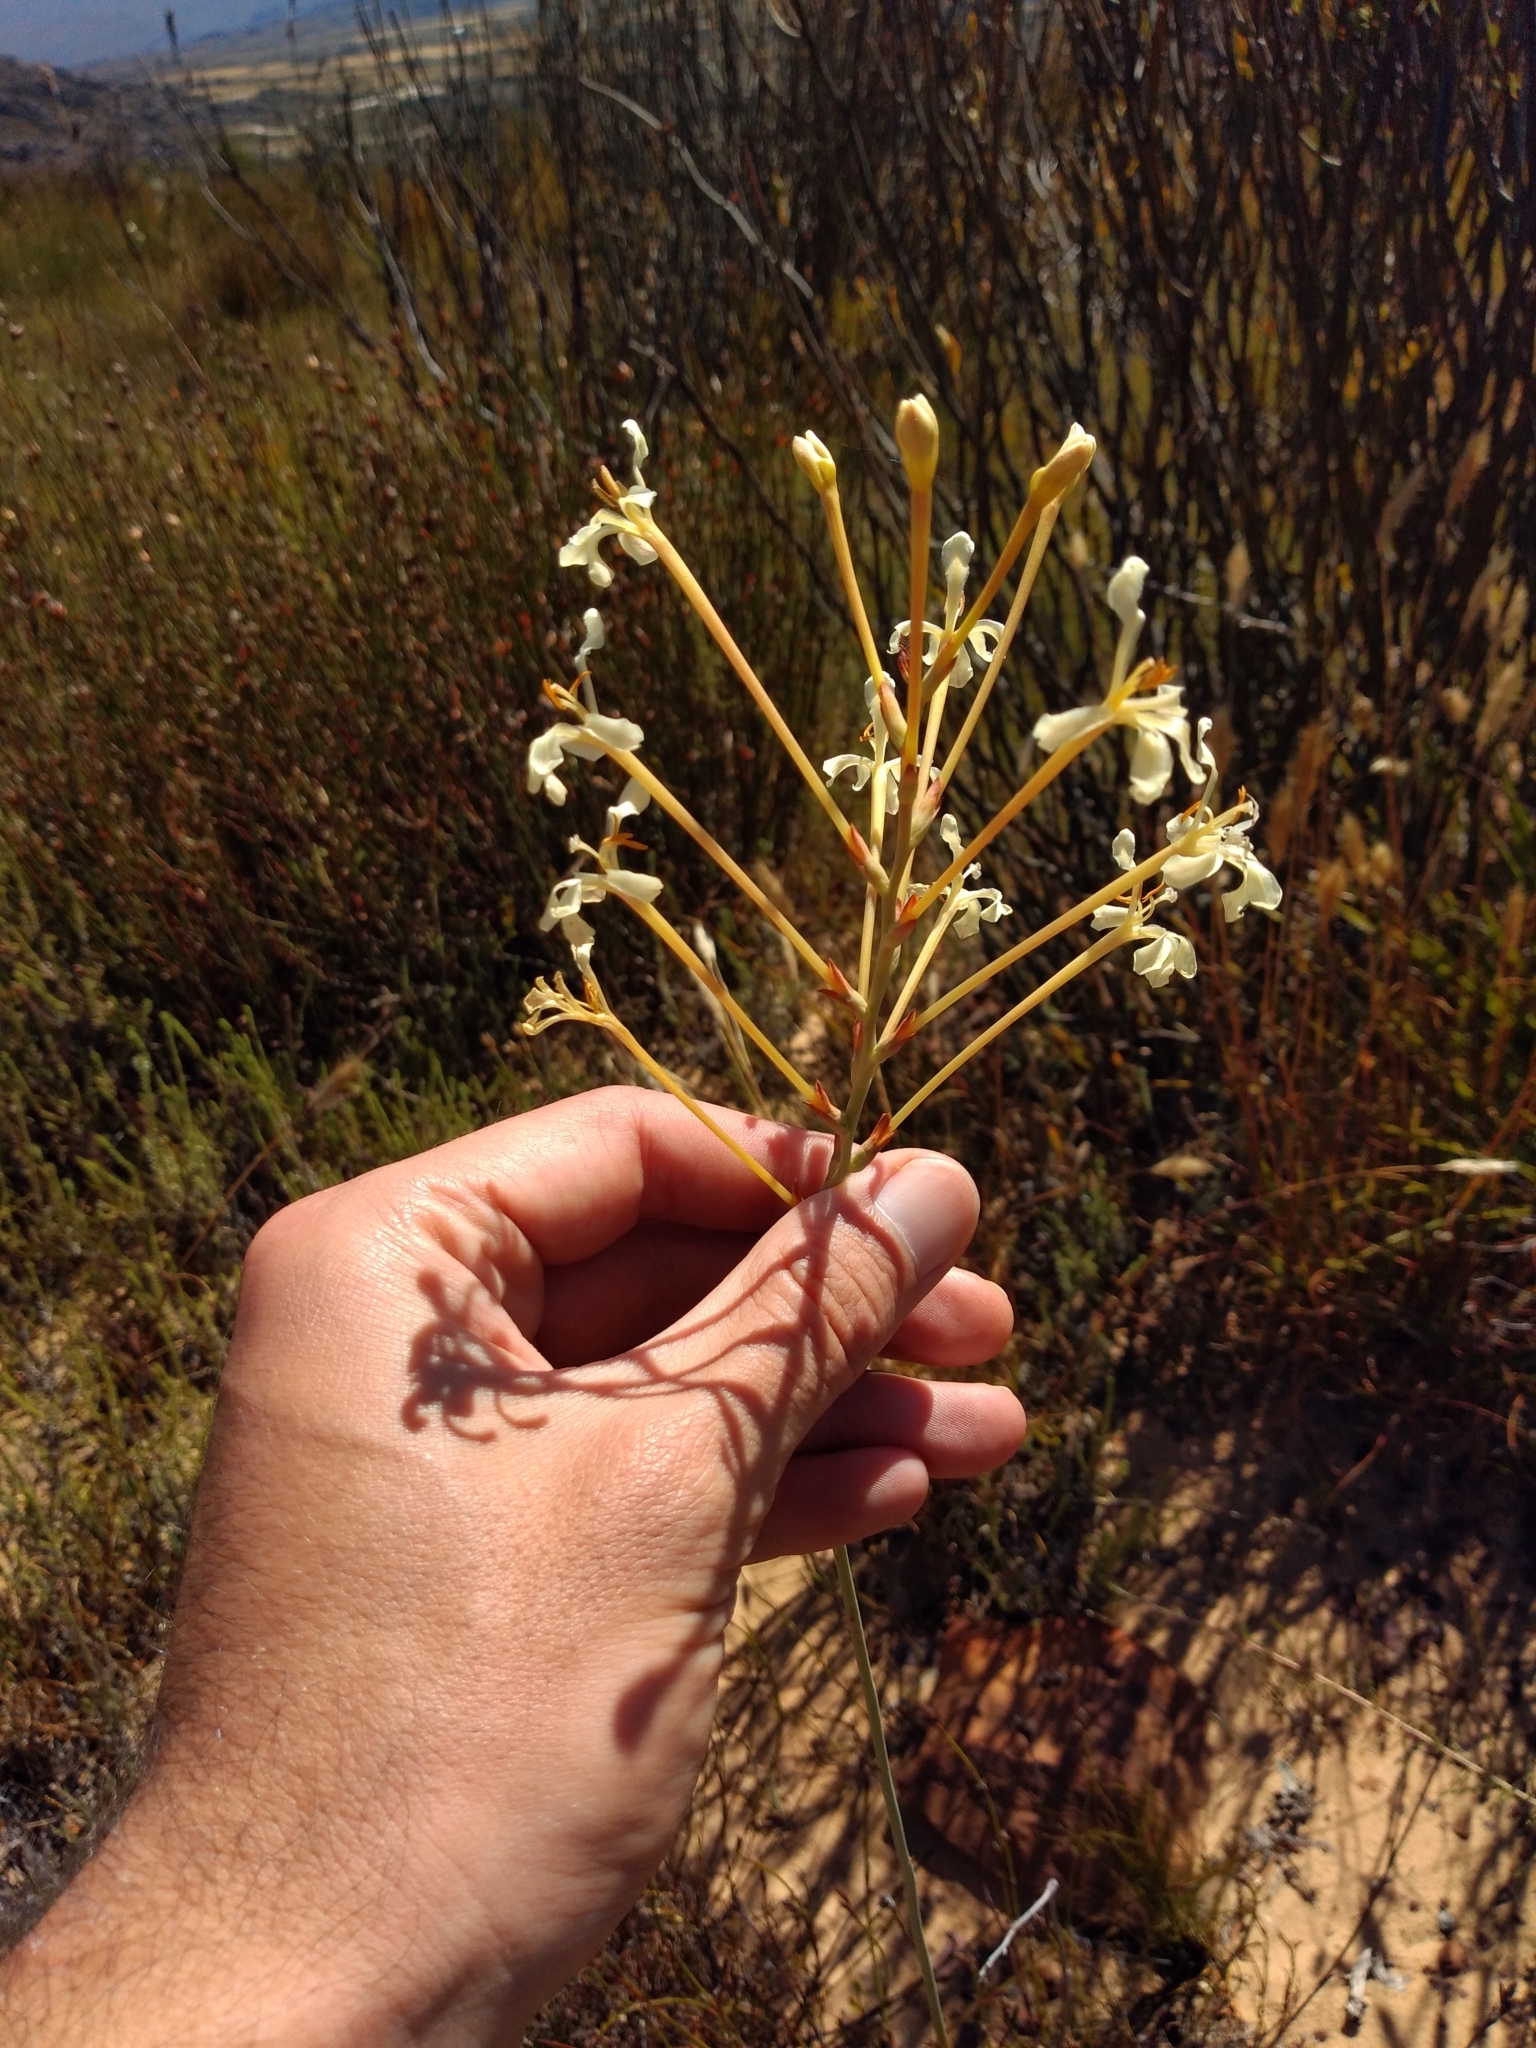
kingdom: Plantae
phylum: Tracheophyta
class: Liliopsida
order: Asparagales
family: Iridaceae
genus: Tritoniopsis
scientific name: Tritoniopsis nervosa
